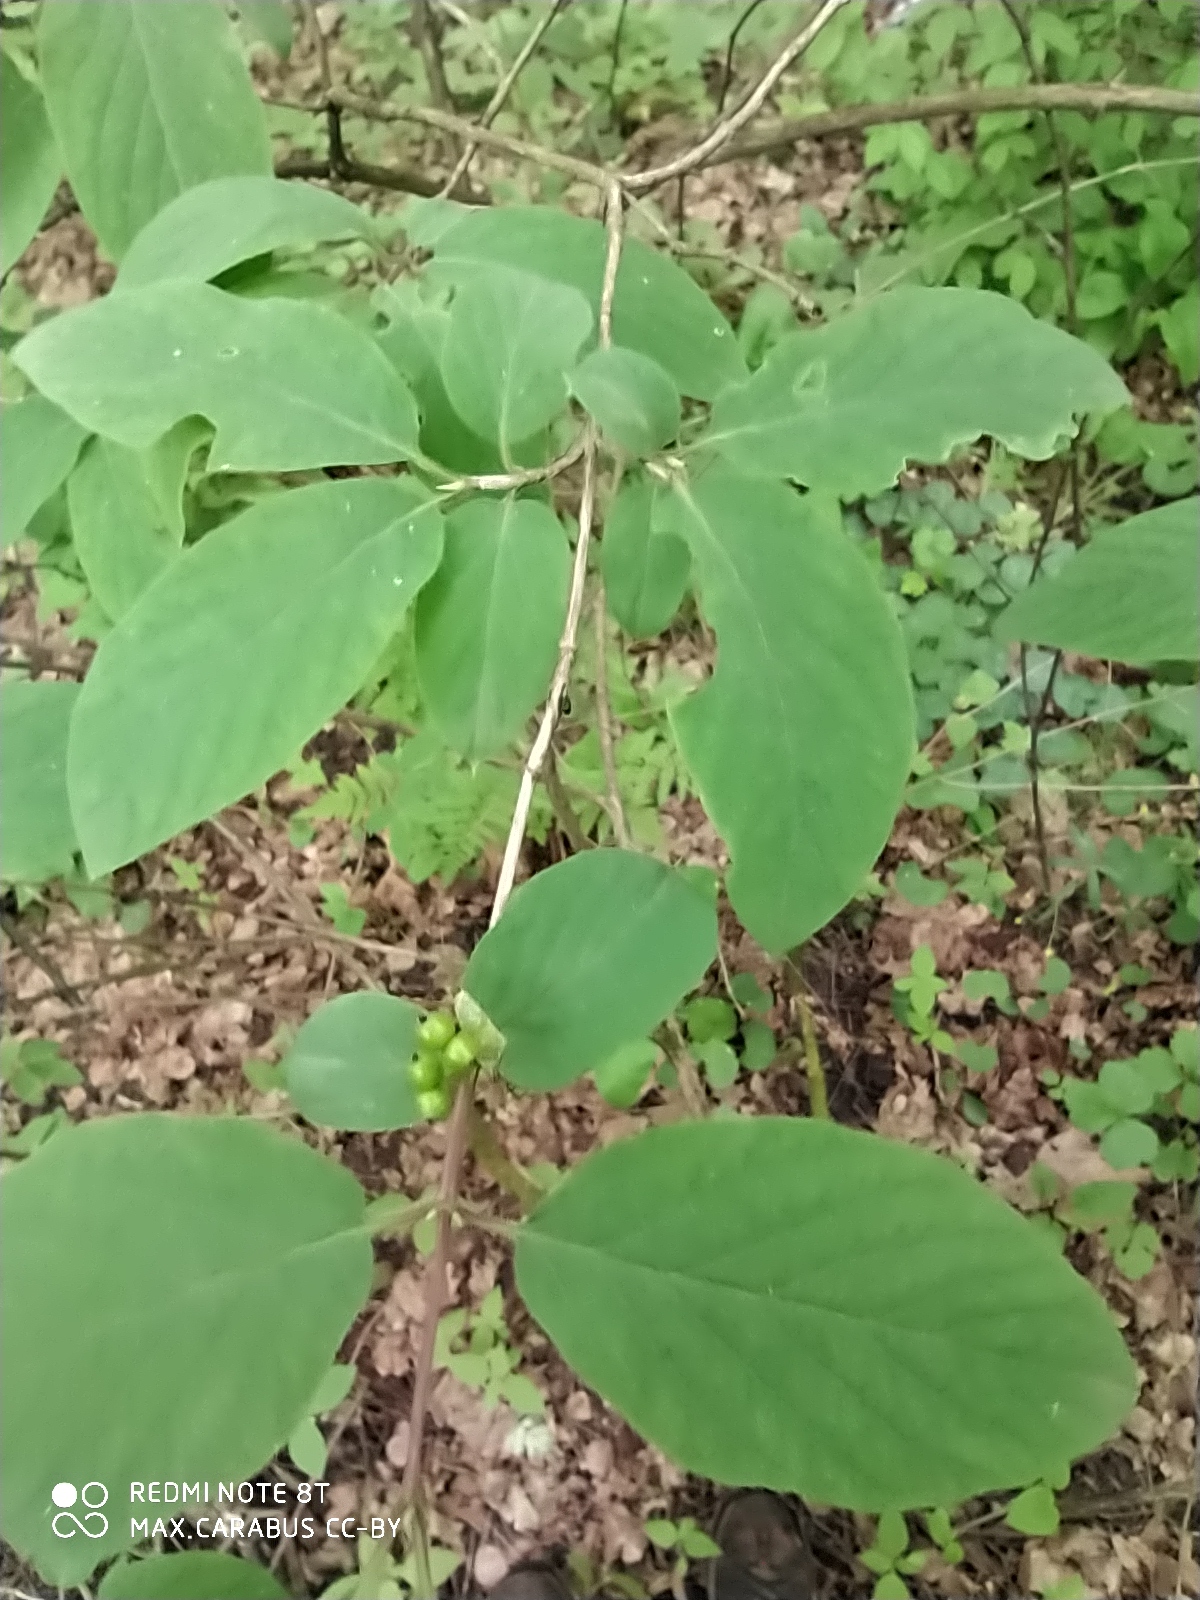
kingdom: Plantae
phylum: Tracheophyta
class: Magnoliopsida
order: Dipsacales
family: Caprifoliaceae
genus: Lonicera
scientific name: Lonicera xylosteum
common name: Fly honeysuckle
